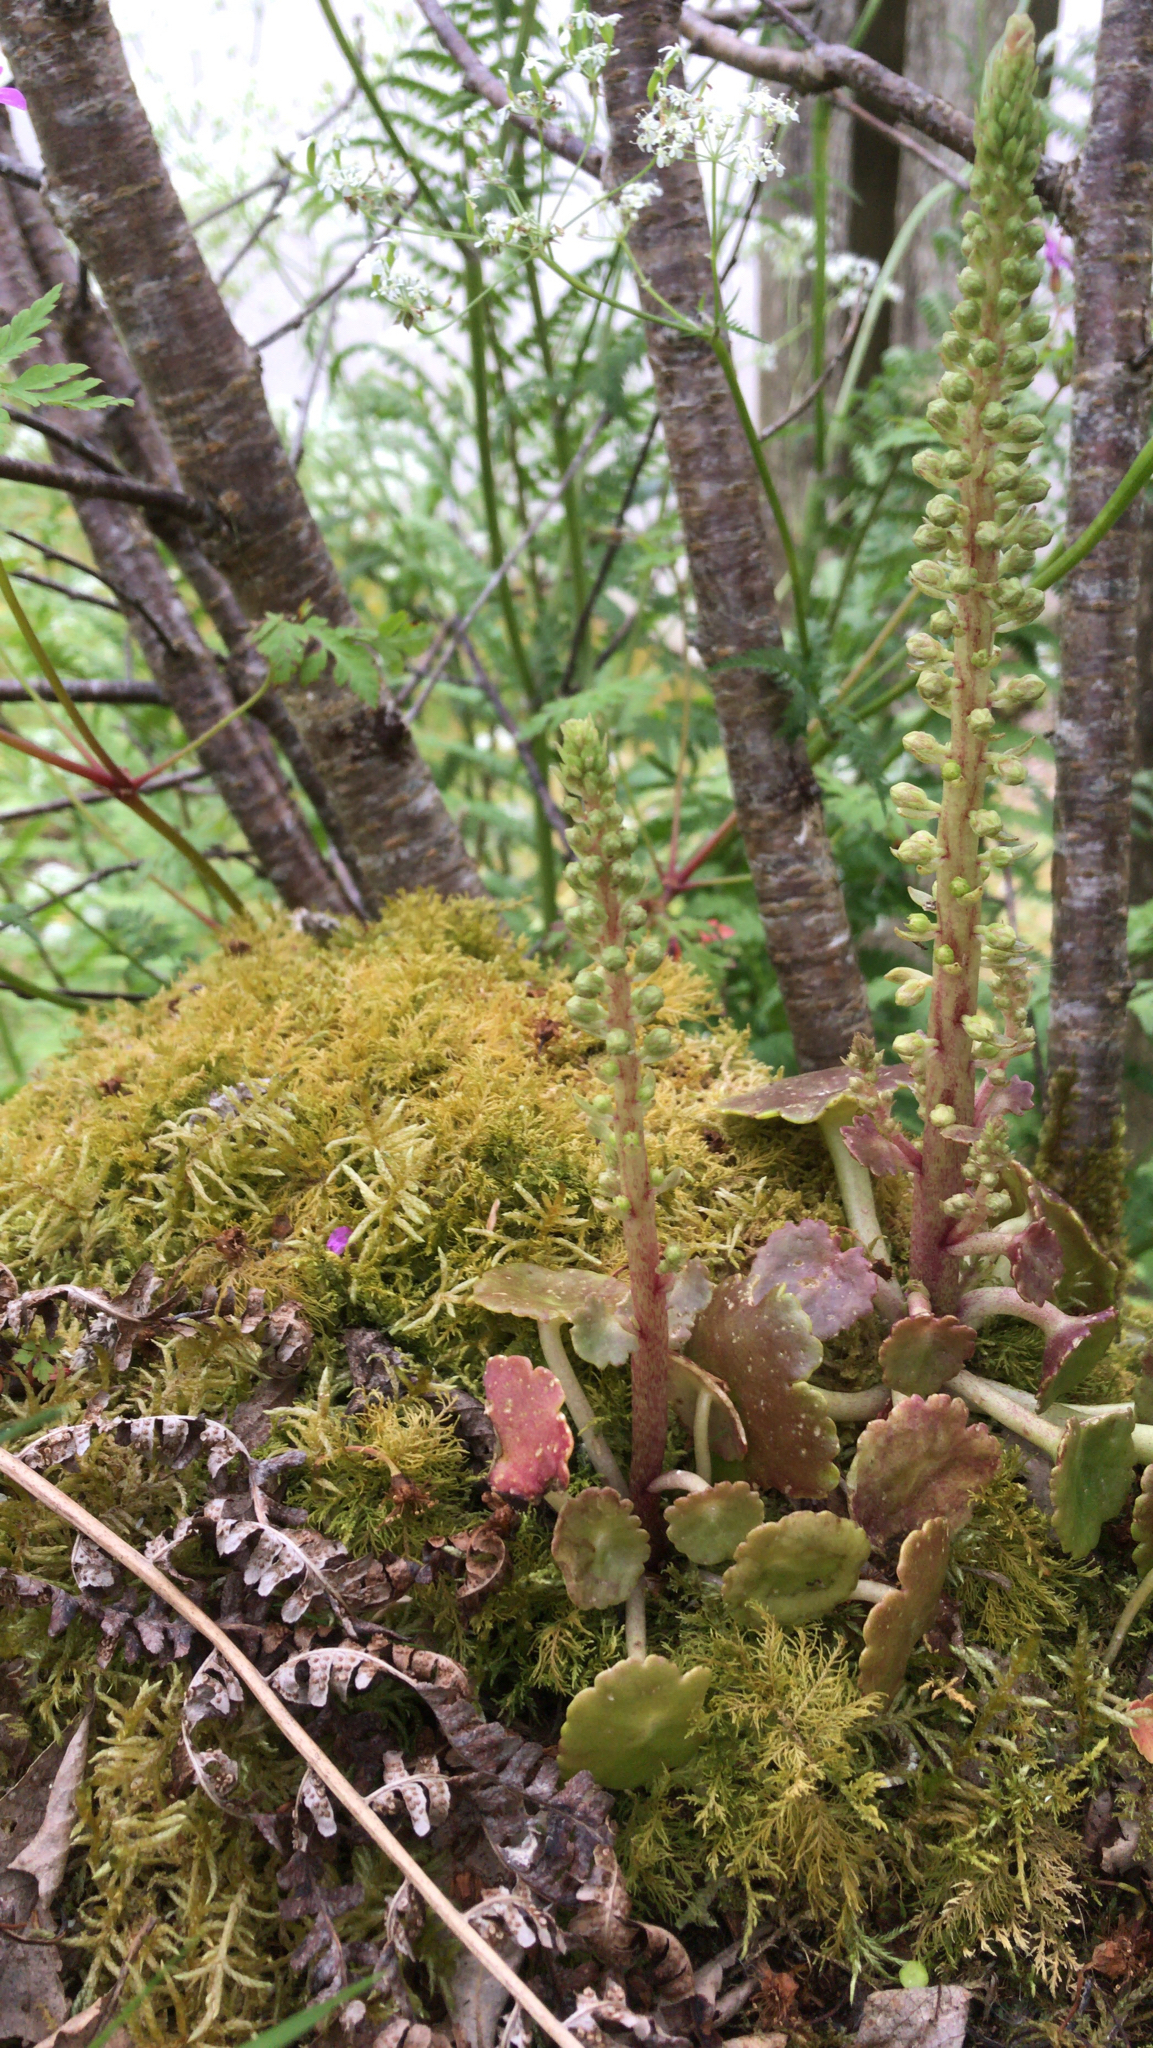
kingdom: Plantae
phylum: Tracheophyta
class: Magnoliopsida
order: Saxifragales
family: Crassulaceae
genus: Umbilicus
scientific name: Umbilicus rupestris
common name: Navelwort
